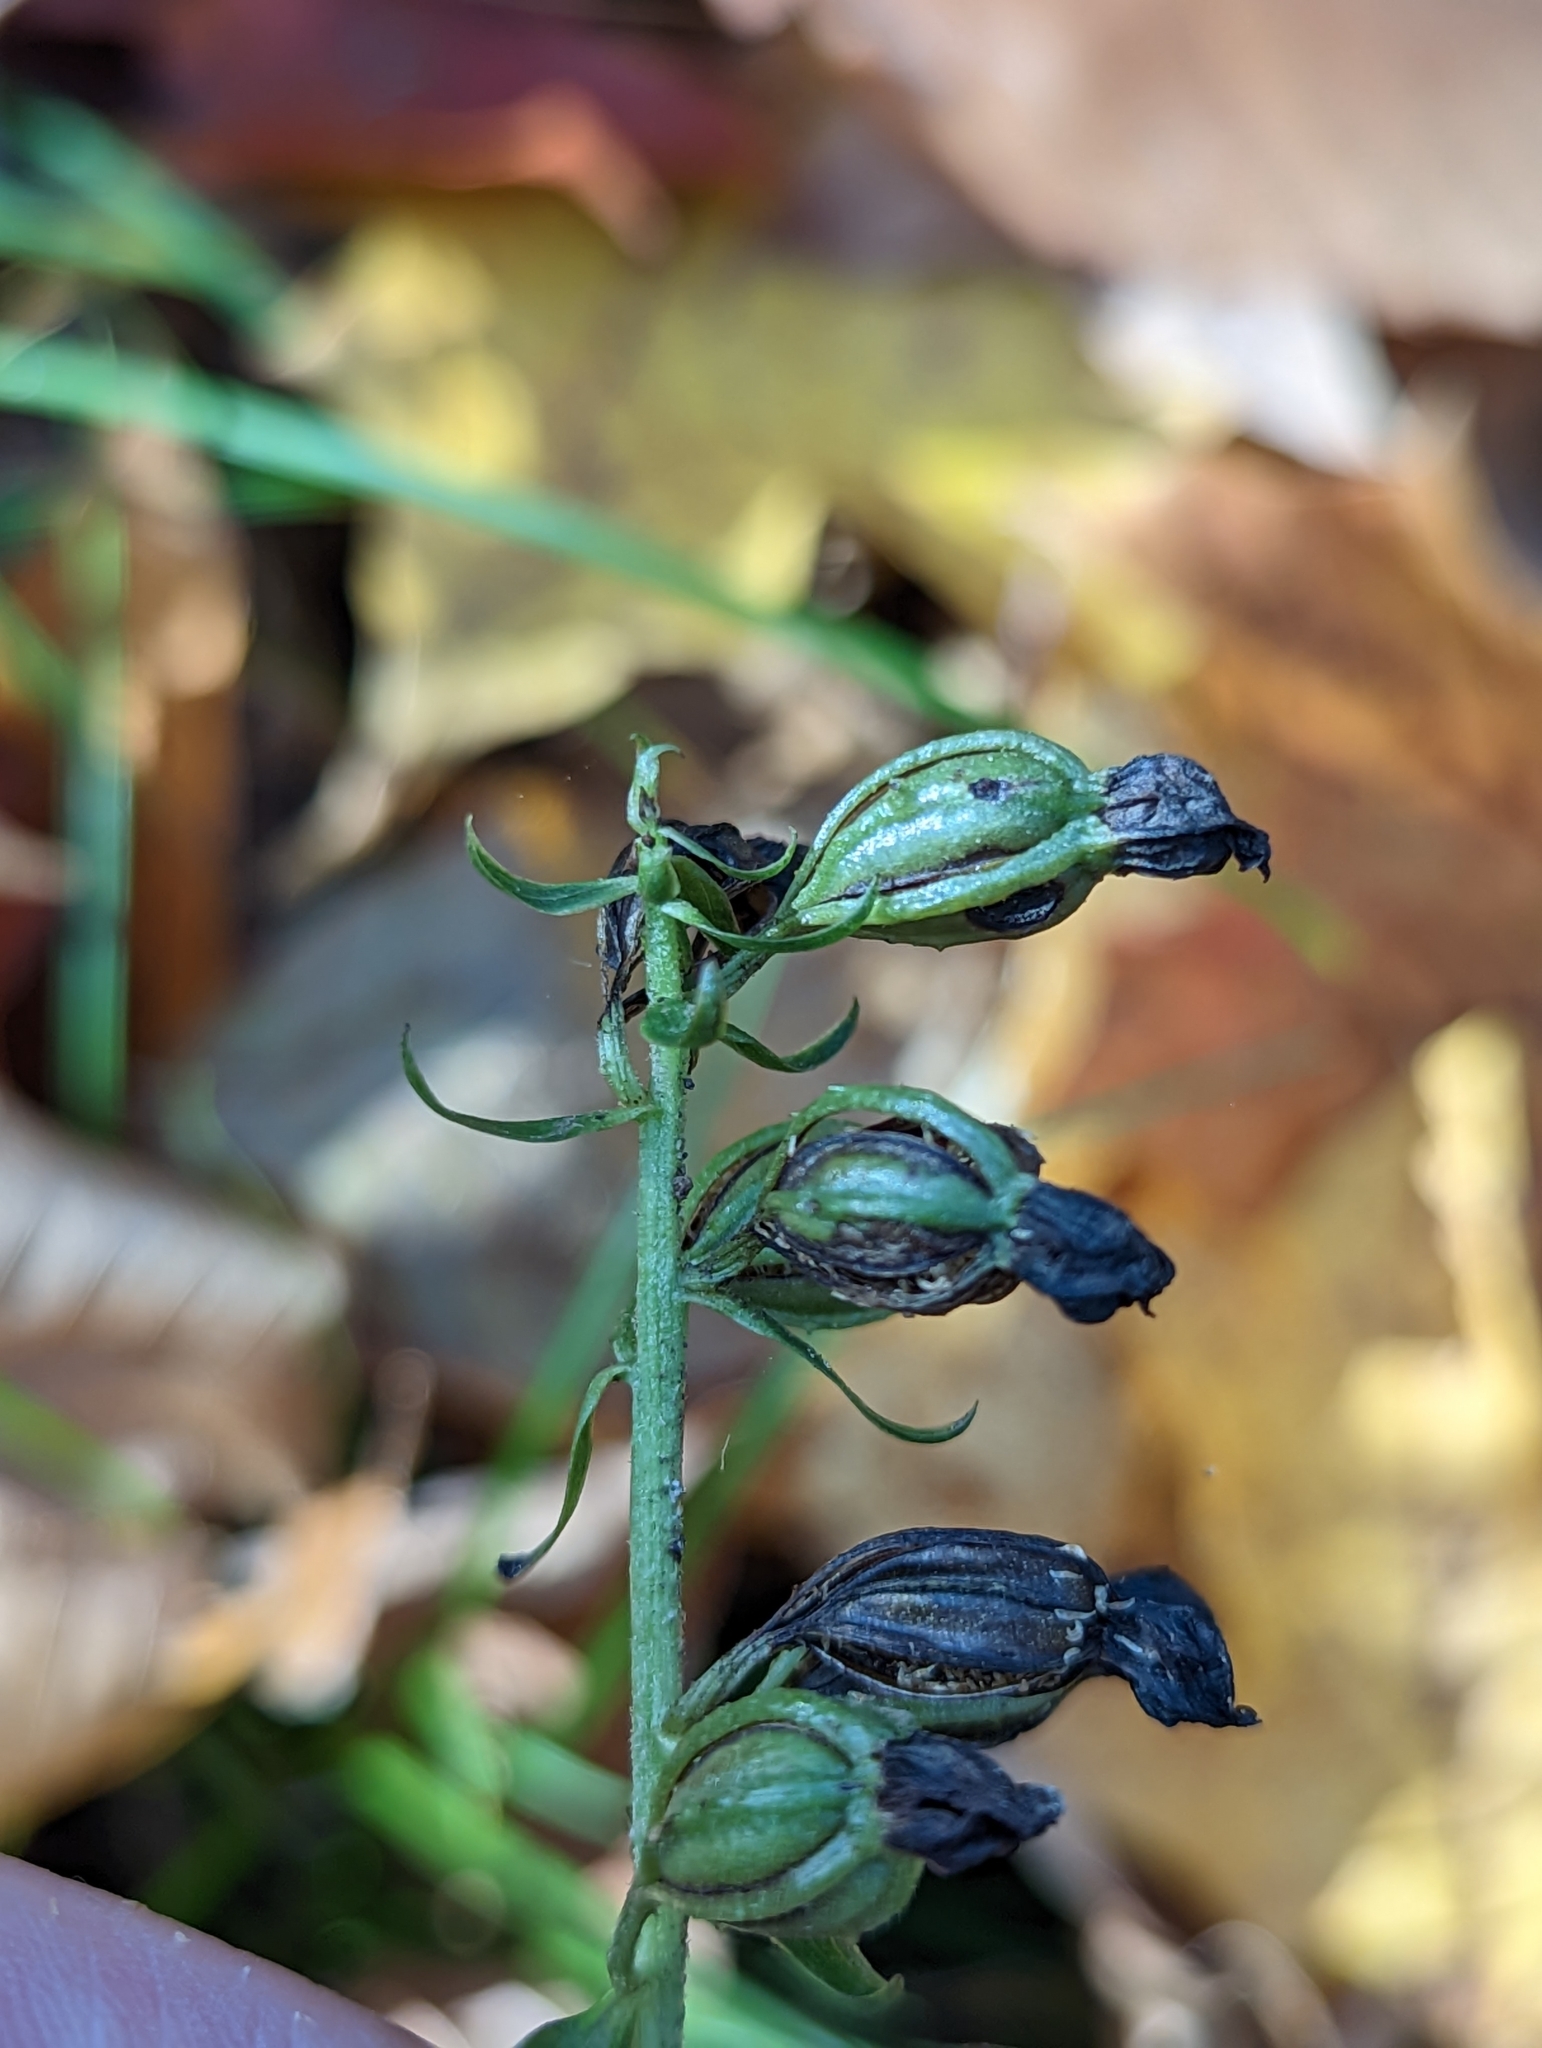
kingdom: Plantae
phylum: Tracheophyta
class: Liliopsida
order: Asparagales
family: Orchidaceae
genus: Epipactis
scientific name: Epipactis helleborine
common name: Broad-leaved helleborine
